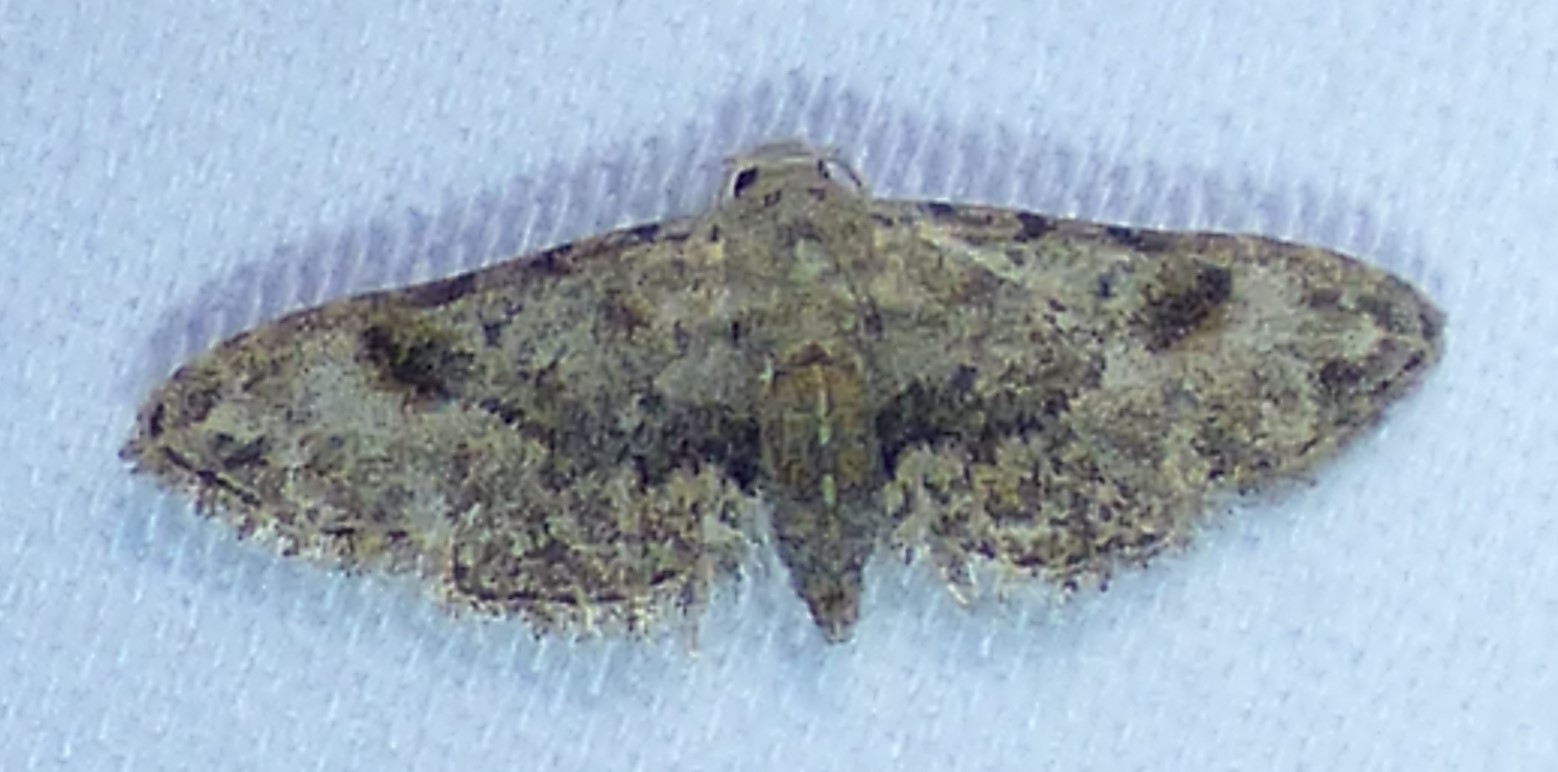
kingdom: Animalia
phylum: Arthropoda
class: Insecta
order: Lepidoptera
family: Erebidae
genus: Sigela
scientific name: Sigela brauneata
